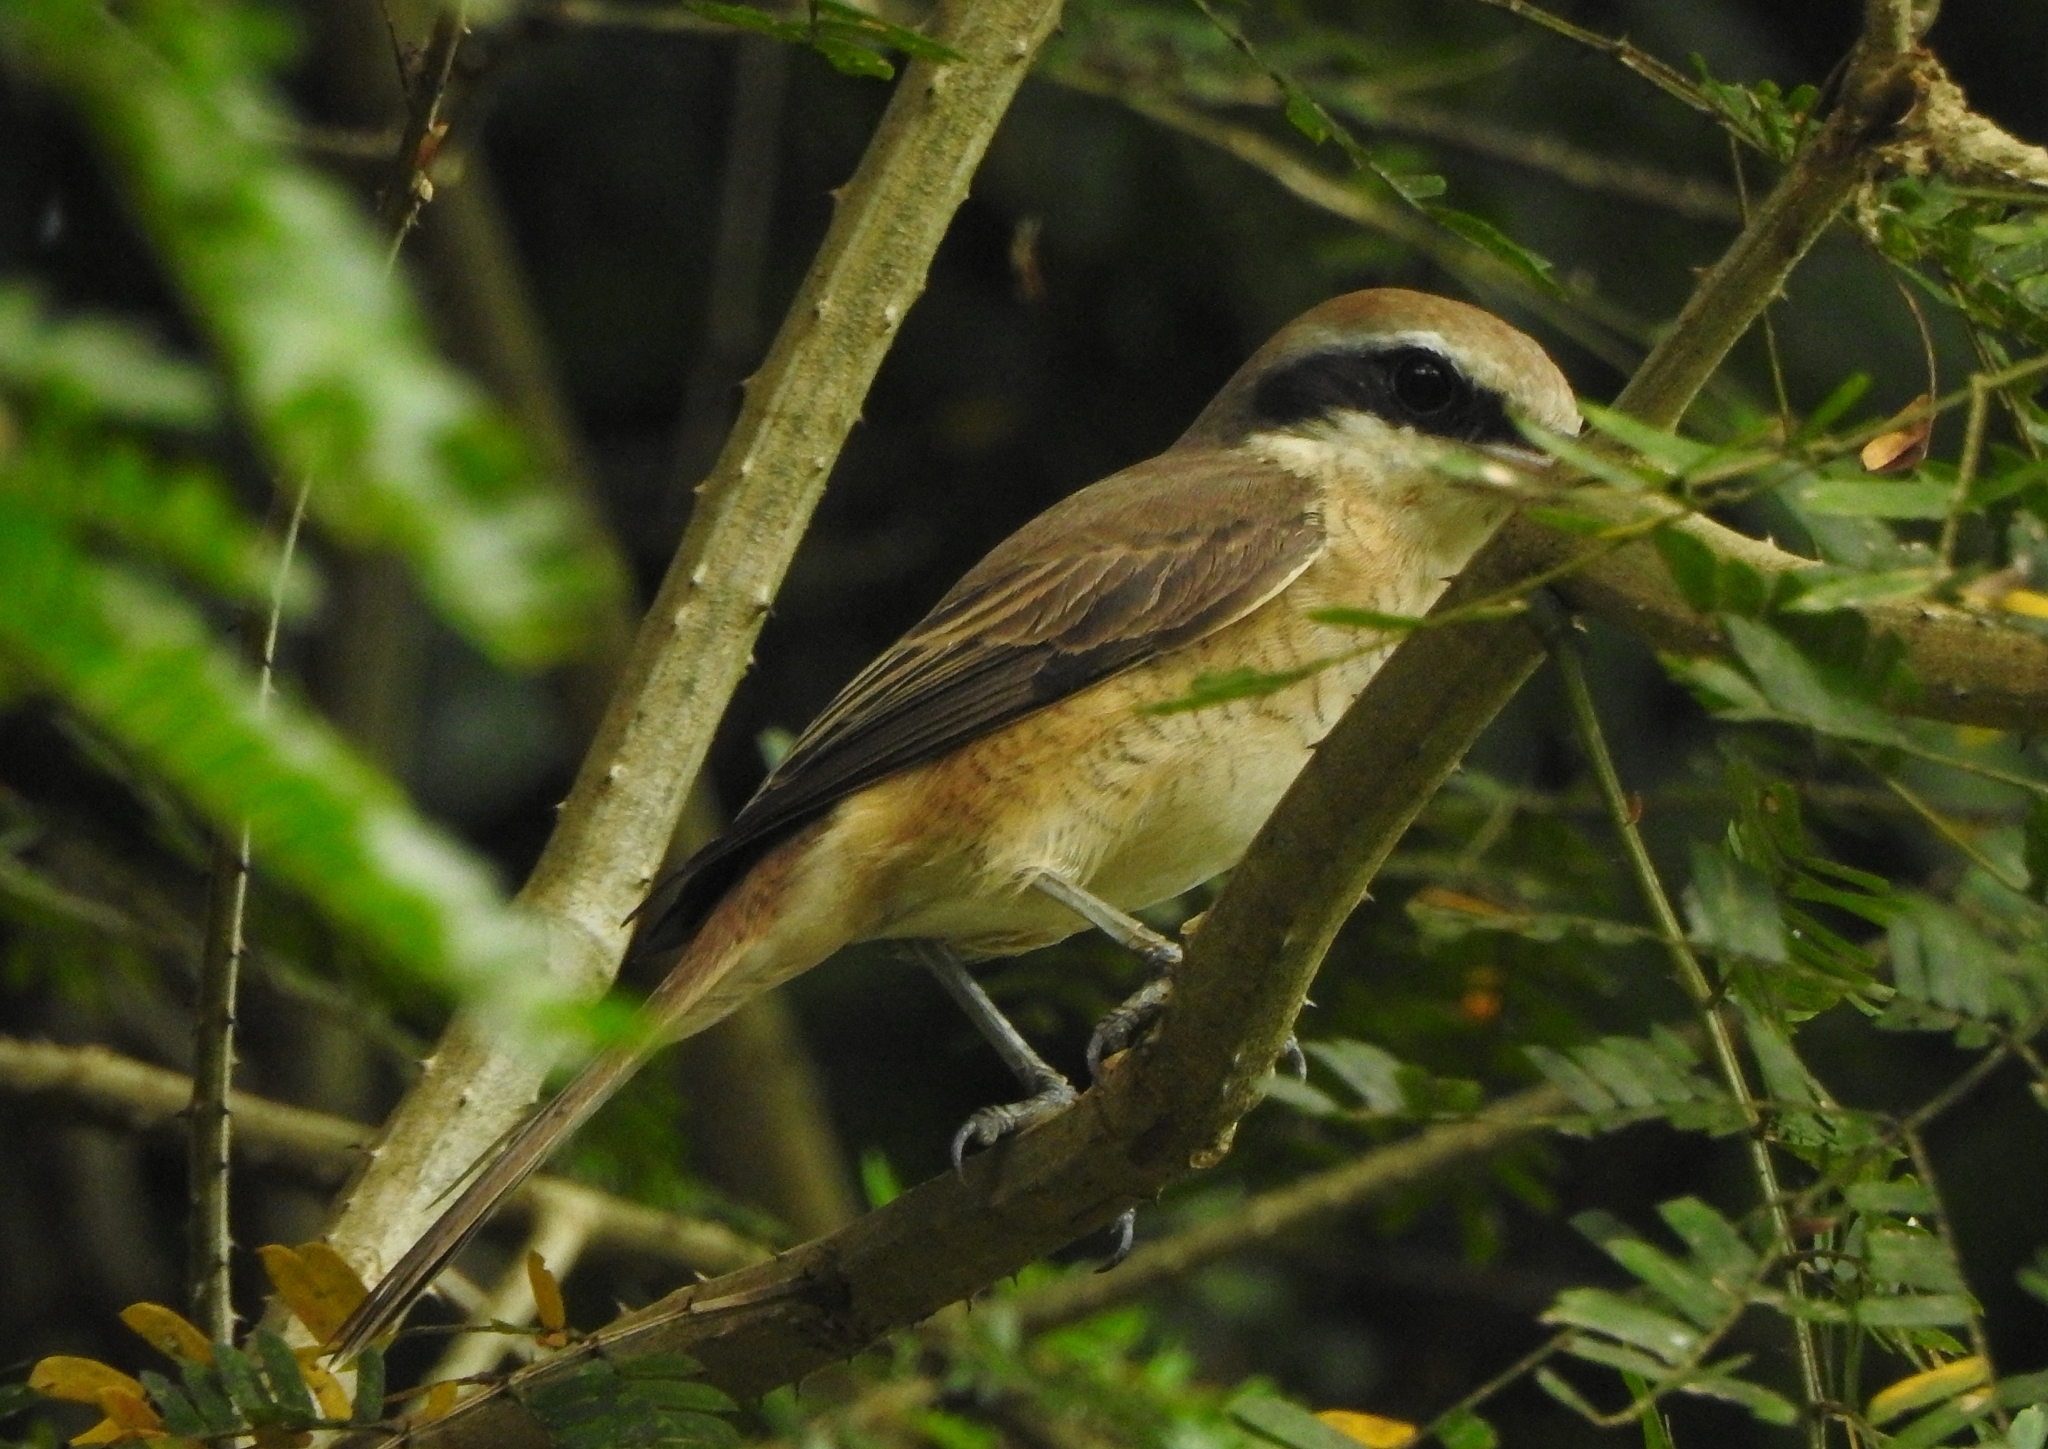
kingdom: Animalia
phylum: Chordata
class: Aves
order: Passeriformes
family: Laniidae
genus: Lanius
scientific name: Lanius cristatus
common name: Brown shrike
